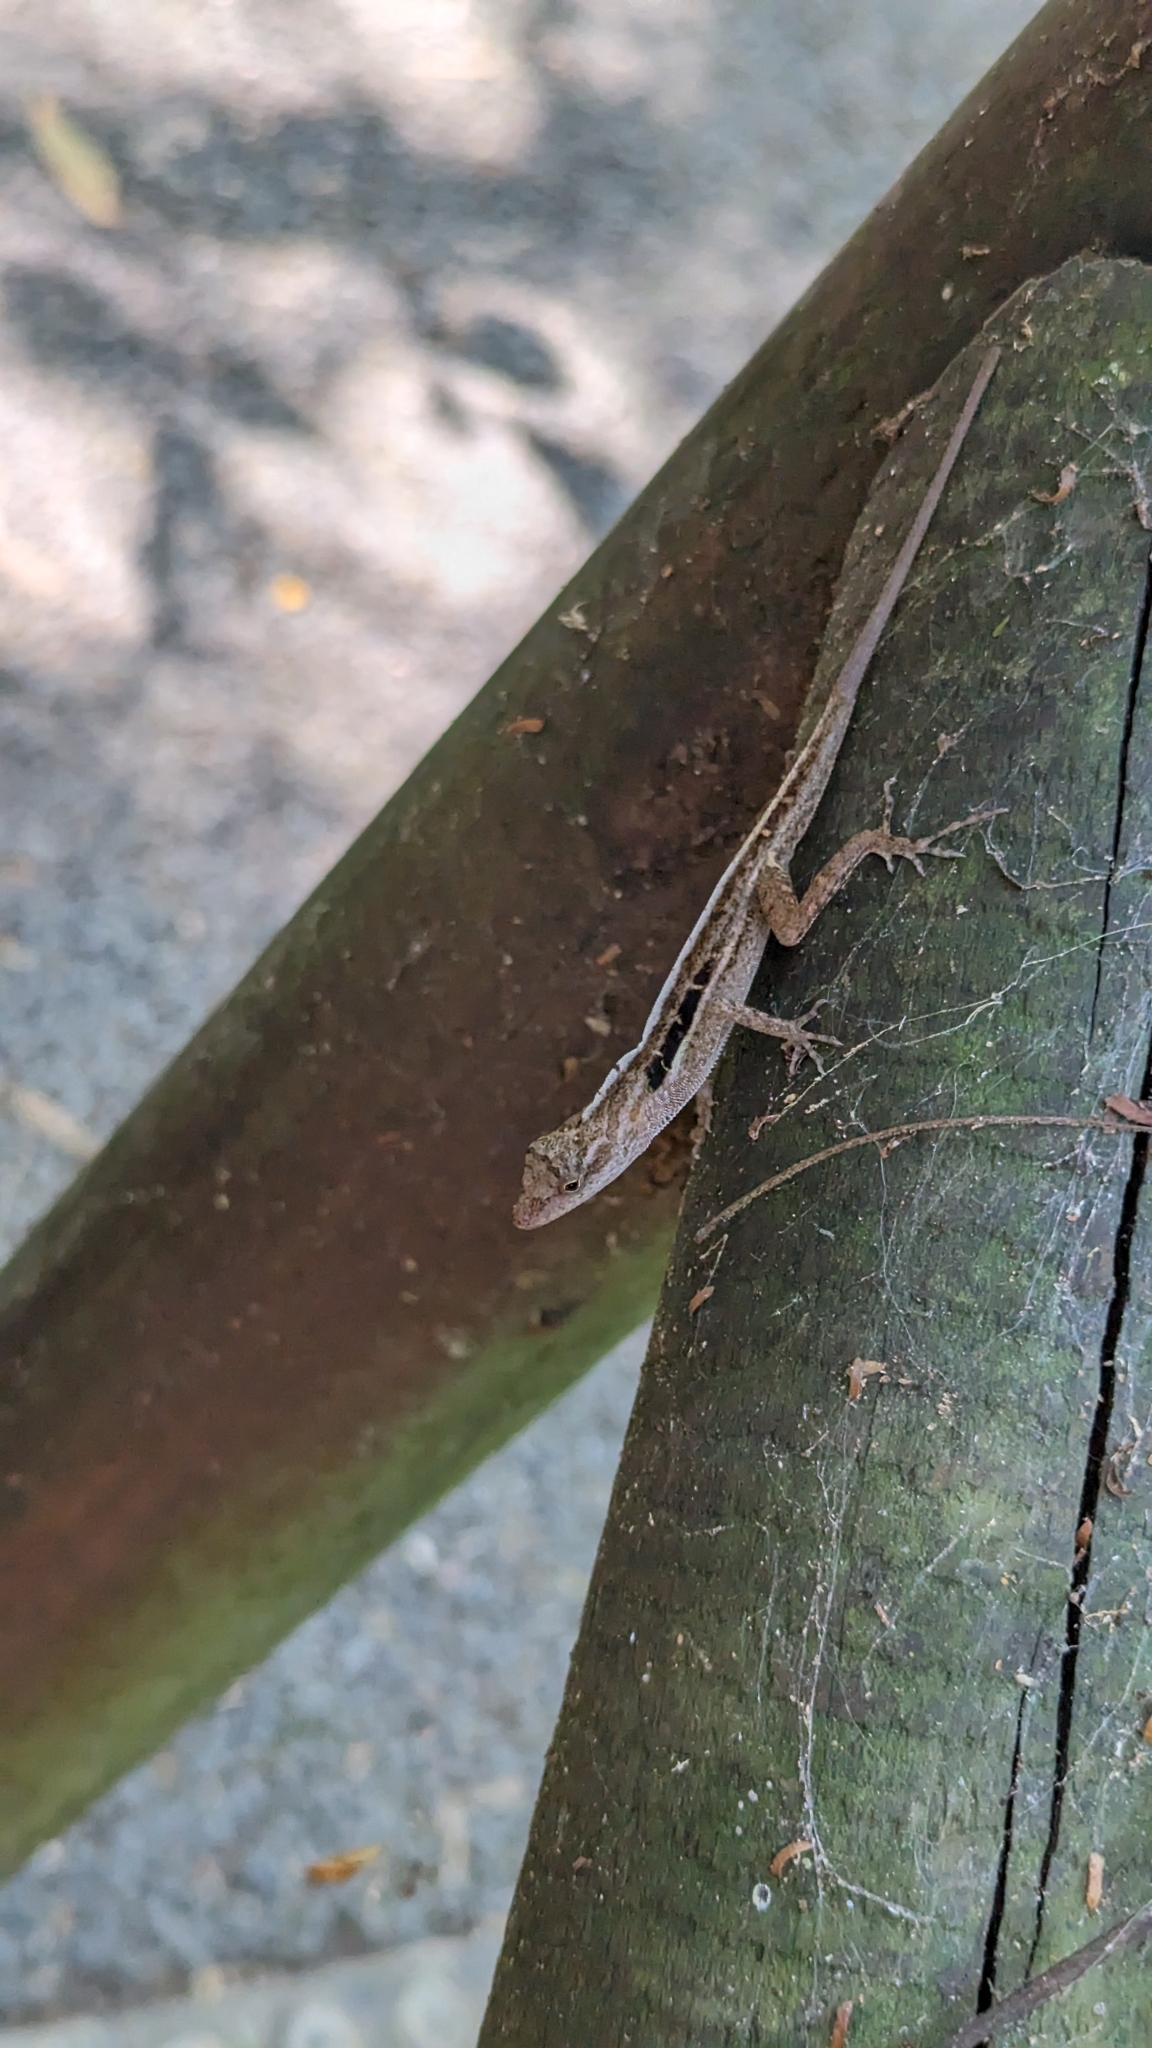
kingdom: Animalia
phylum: Chordata
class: Squamata
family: Dactyloidae
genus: Anolis
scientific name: Anolis cupreus
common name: Copper anole
